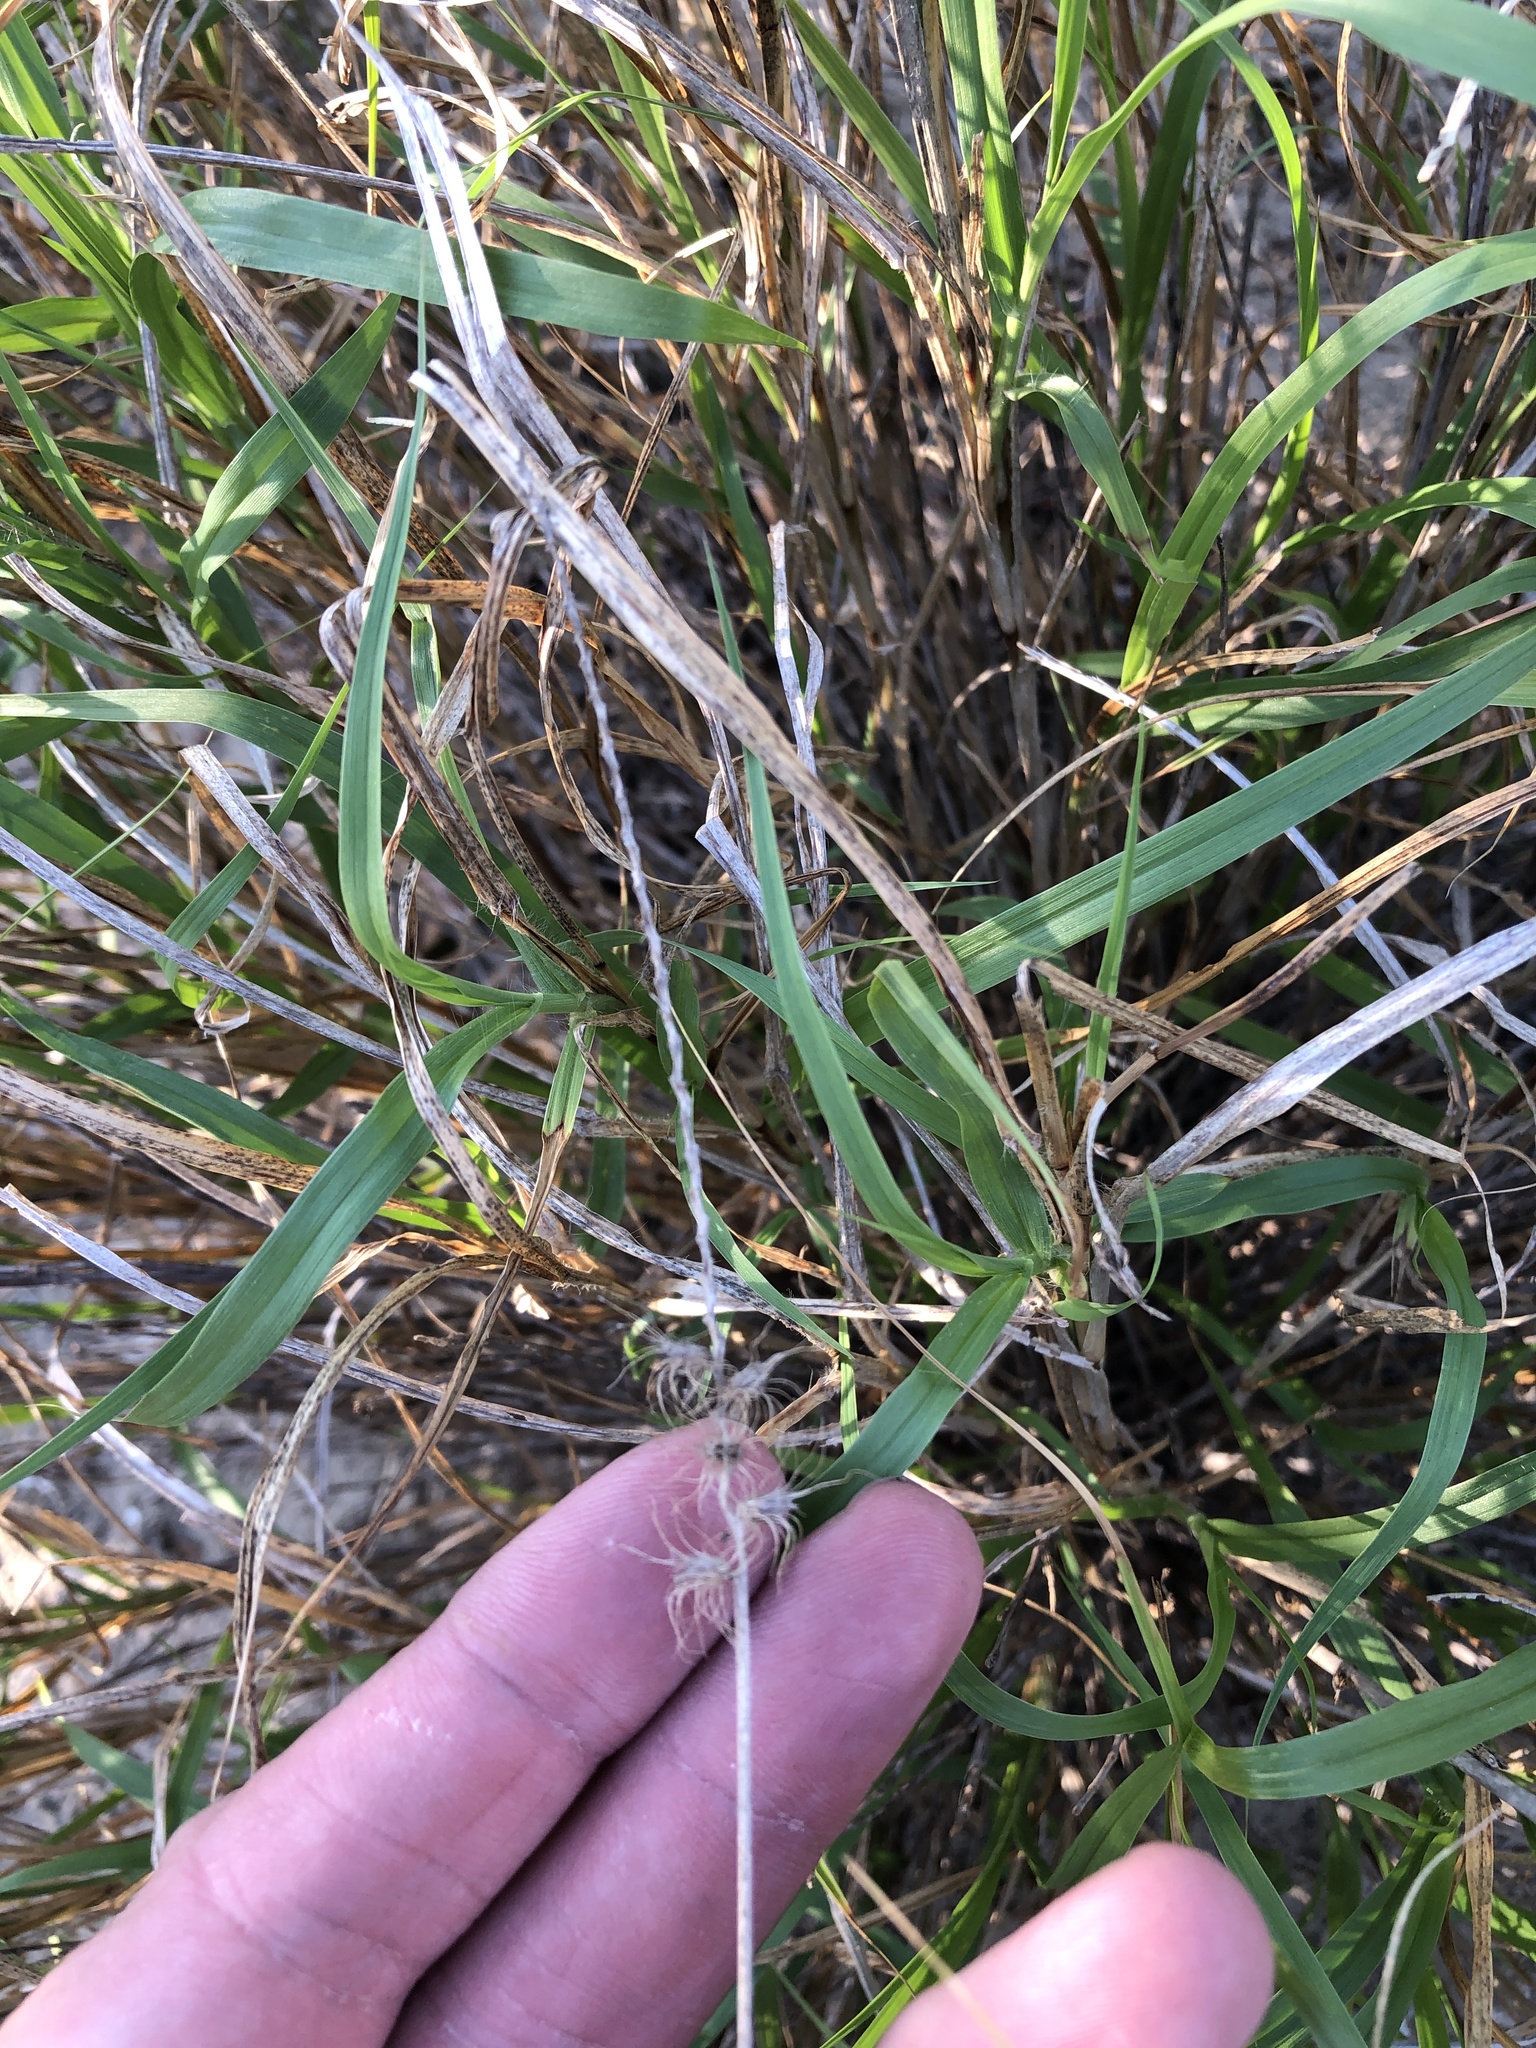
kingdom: Plantae
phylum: Tracheophyta
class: Liliopsida
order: Poales
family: Poaceae
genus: Cenchrus
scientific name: Cenchrus ciliaris
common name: Buffelgrass
